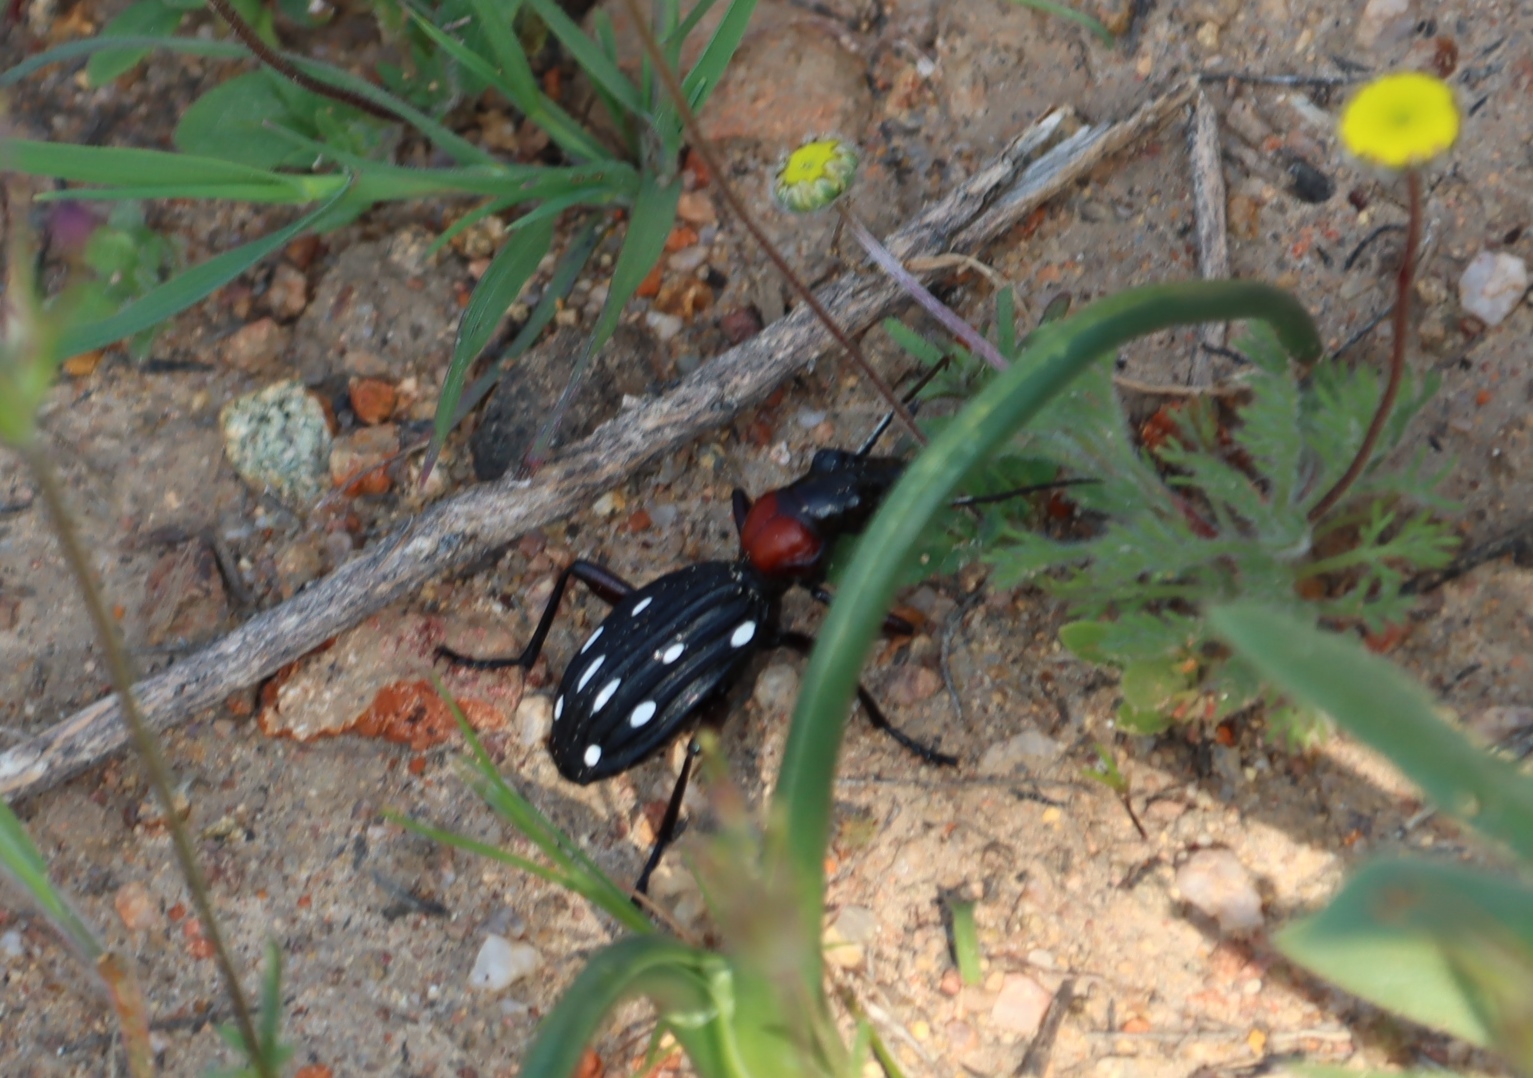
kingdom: Animalia
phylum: Arthropoda
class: Insecta
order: Coleoptera
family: Carabidae
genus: Anthia
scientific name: Anthia decemguttata
